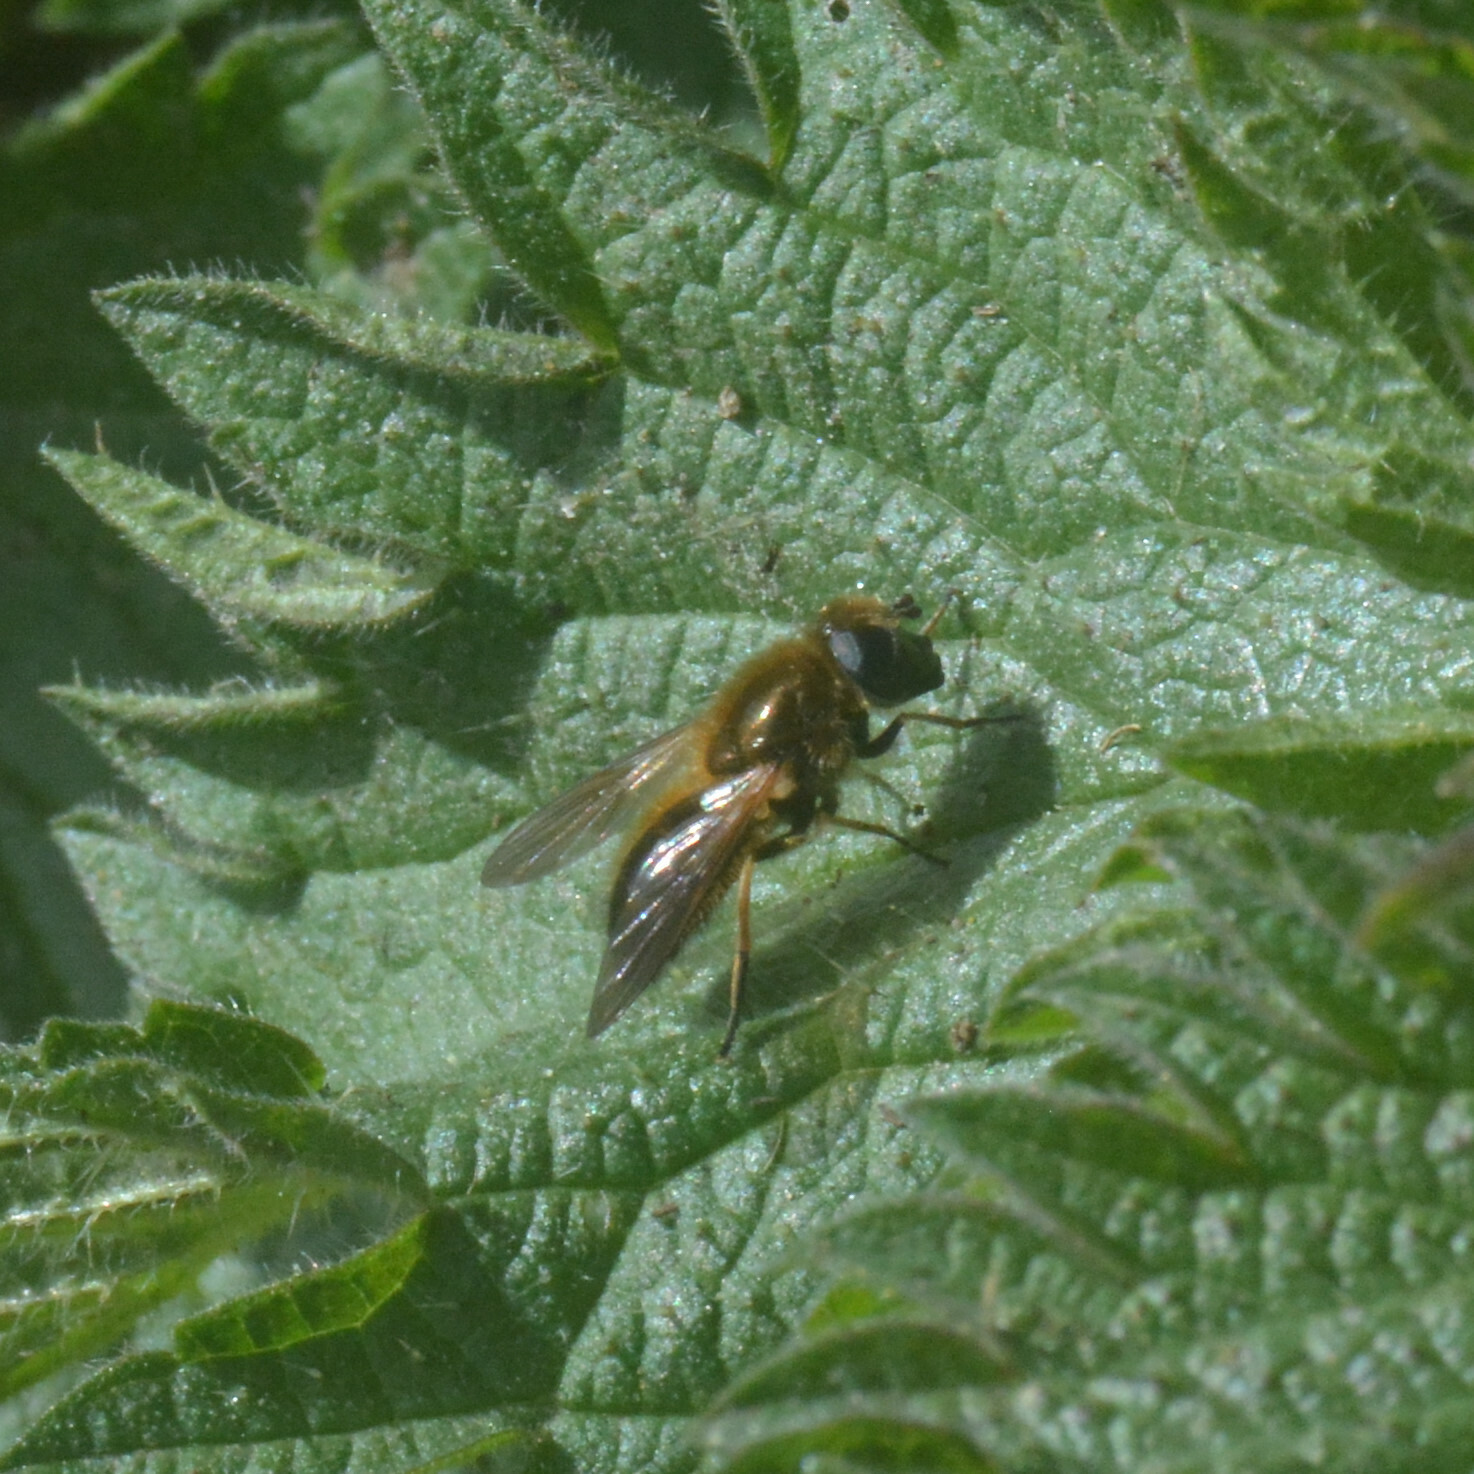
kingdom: Animalia
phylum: Arthropoda
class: Insecta
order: Diptera
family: Syrphidae
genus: Cheilosia
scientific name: Cheilosia corydon
